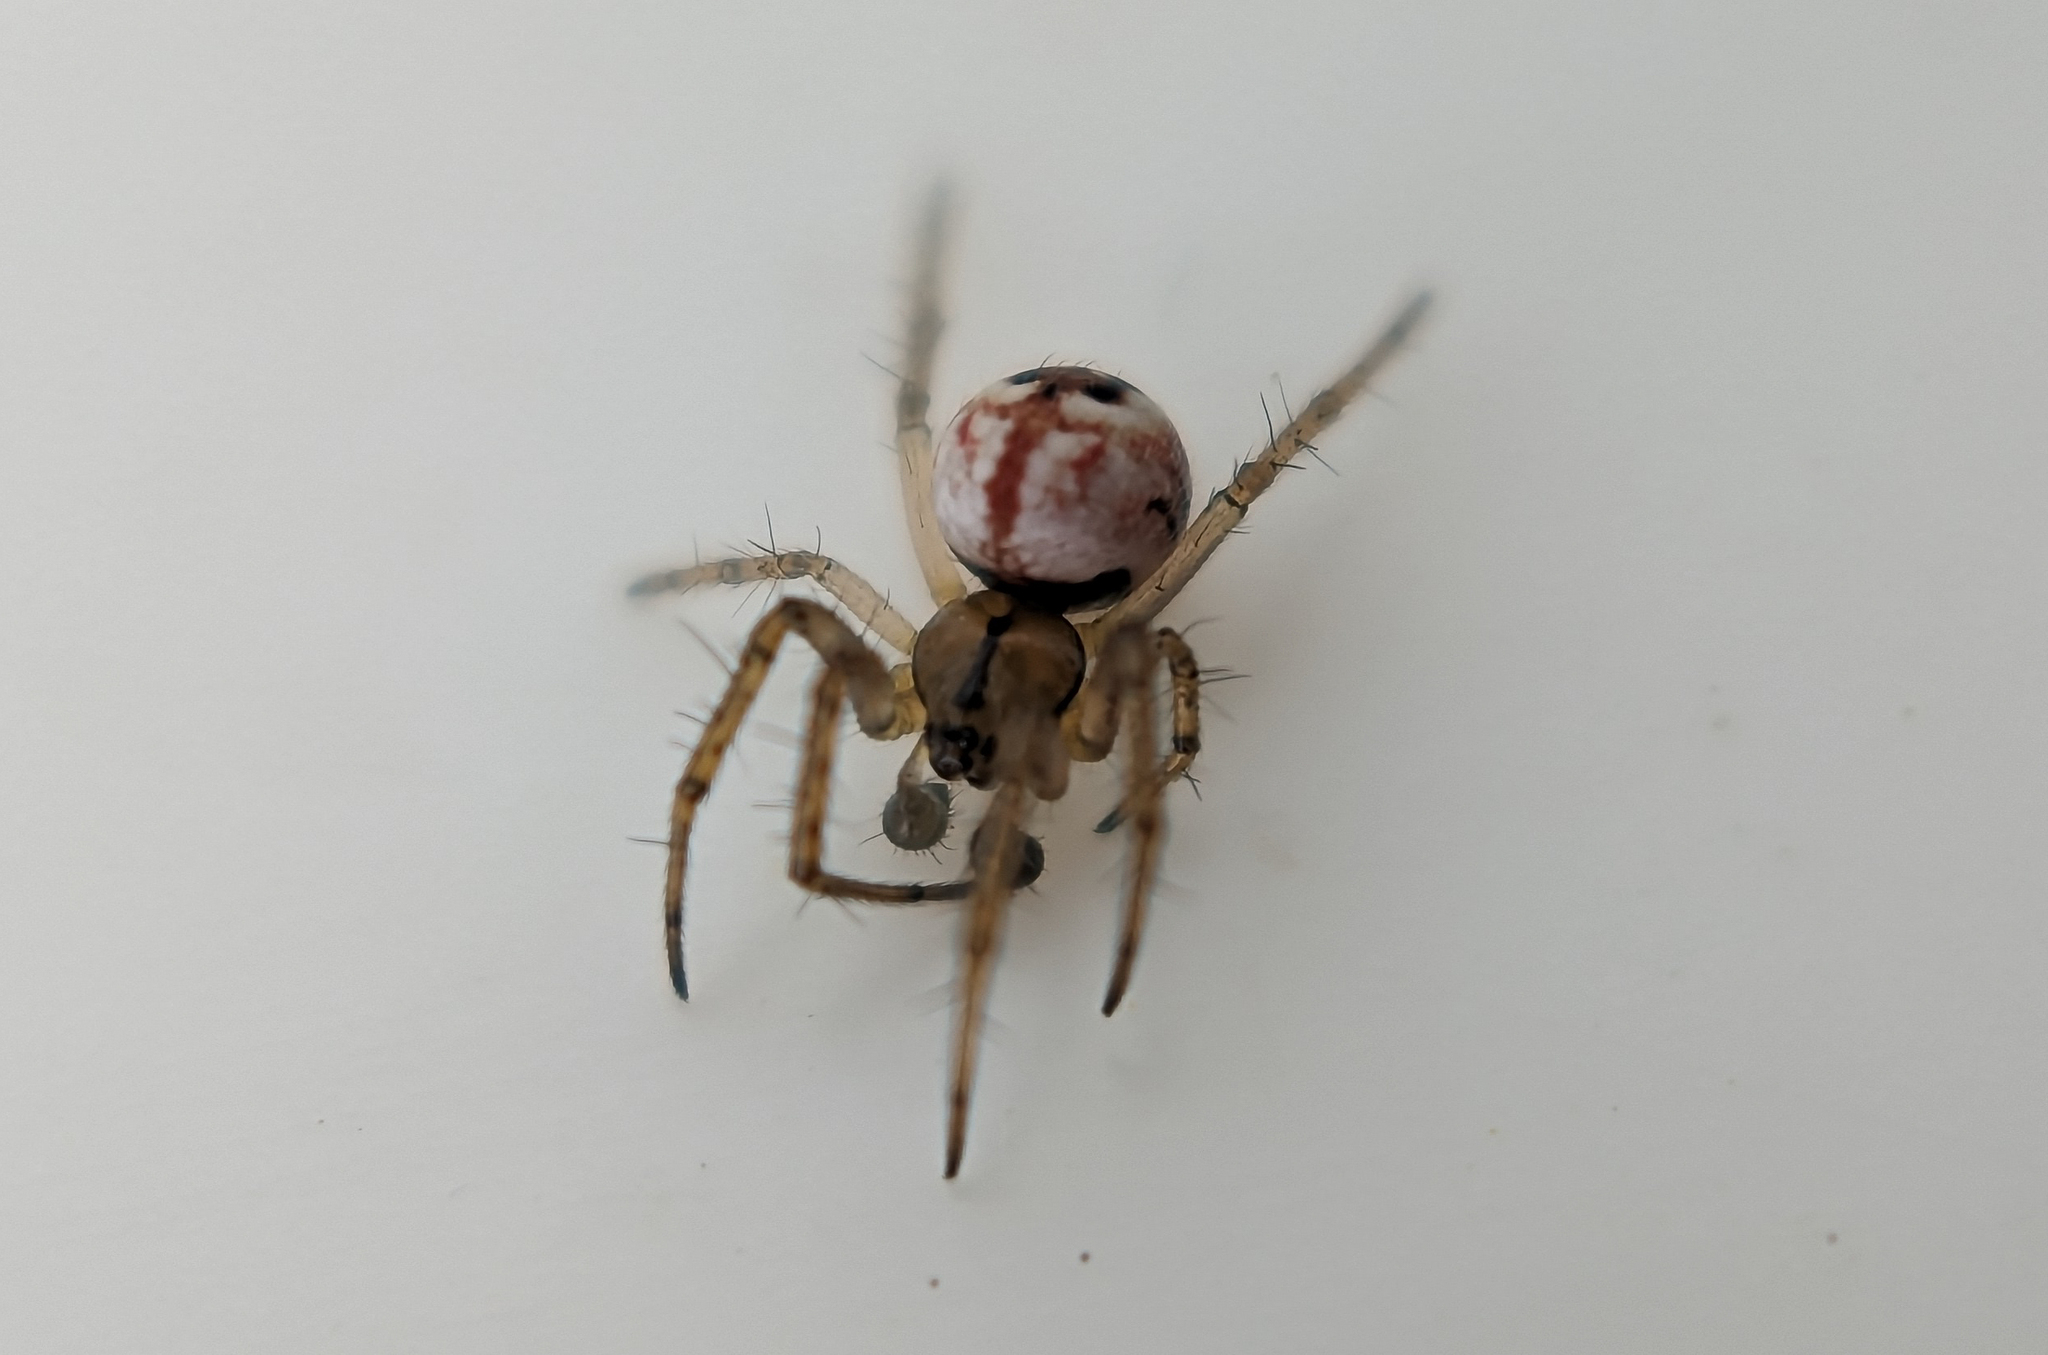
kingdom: Animalia
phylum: Arthropoda
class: Arachnida
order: Araneae
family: Araneidae
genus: Mangora
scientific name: Mangora acalypha
